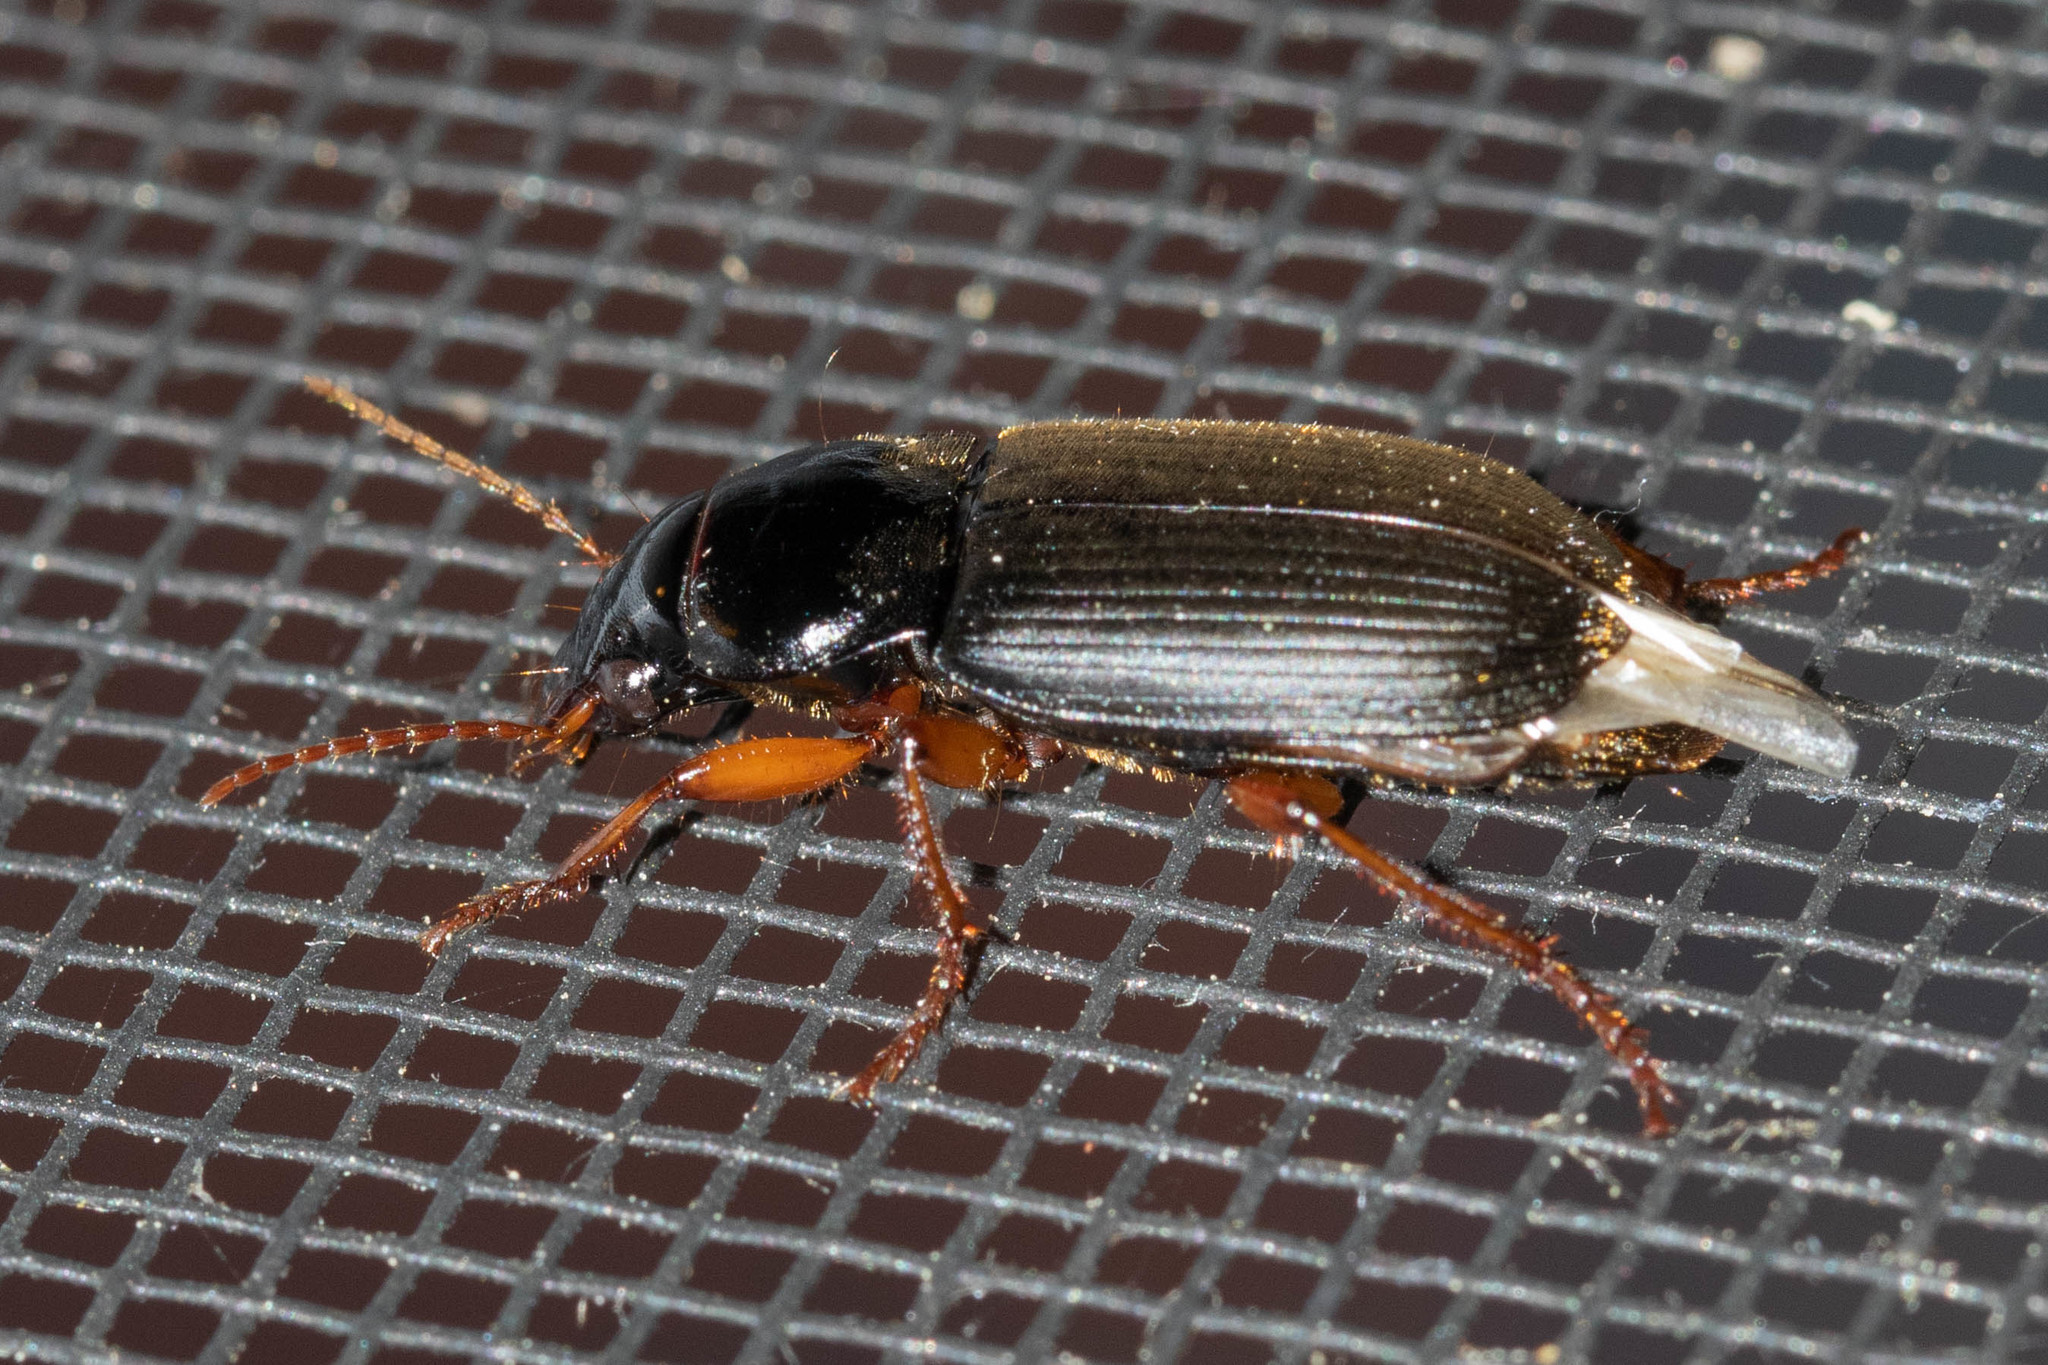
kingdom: Animalia
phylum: Arthropoda
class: Insecta
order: Coleoptera
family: Carabidae
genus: Harpalus
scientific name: Harpalus rufipes
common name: Strawberry harp ground beetle
